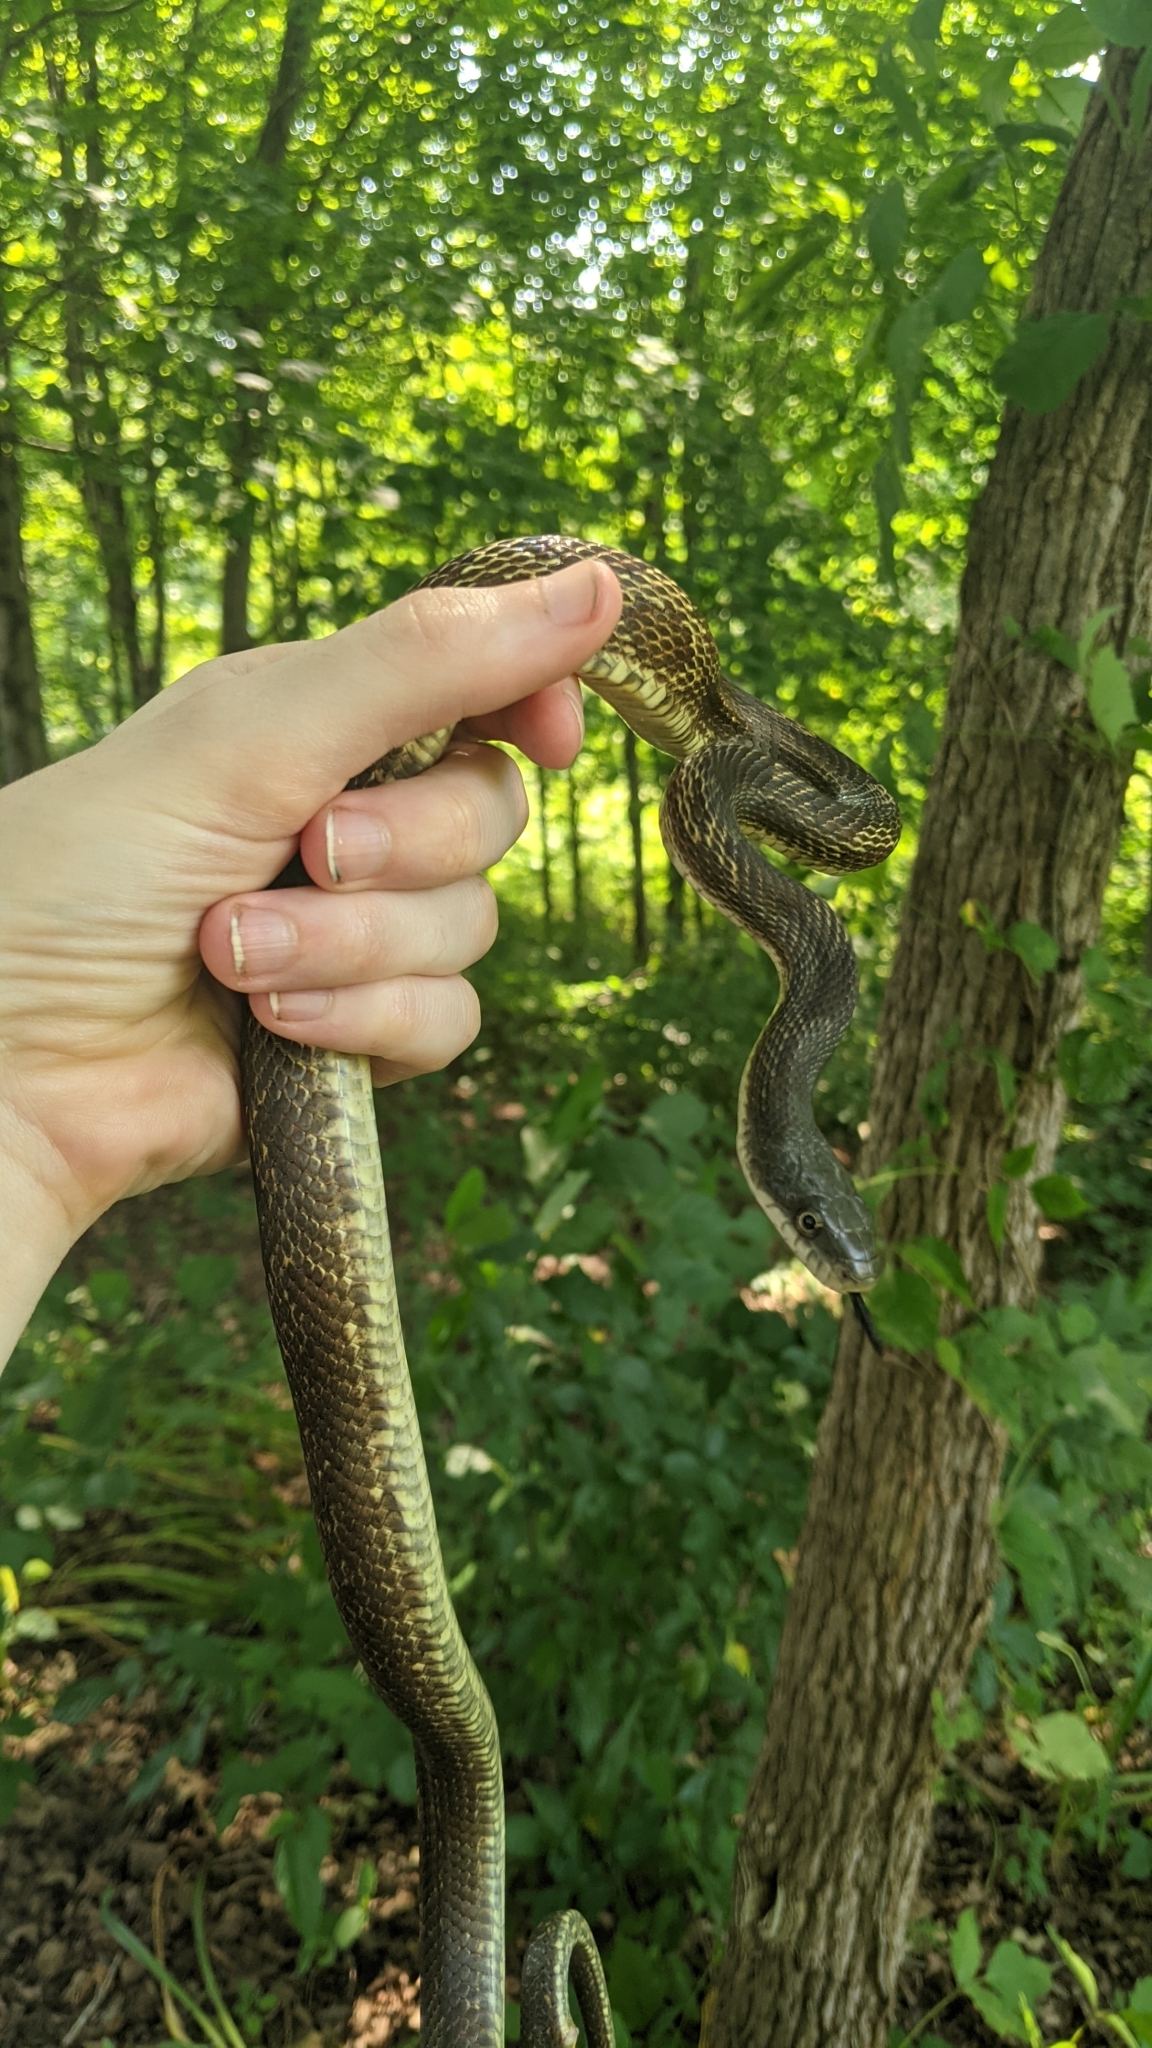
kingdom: Animalia
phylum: Chordata
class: Squamata
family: Colubridae
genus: Pantherophis
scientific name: Pantherophis spiloides
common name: Gray rat snake
